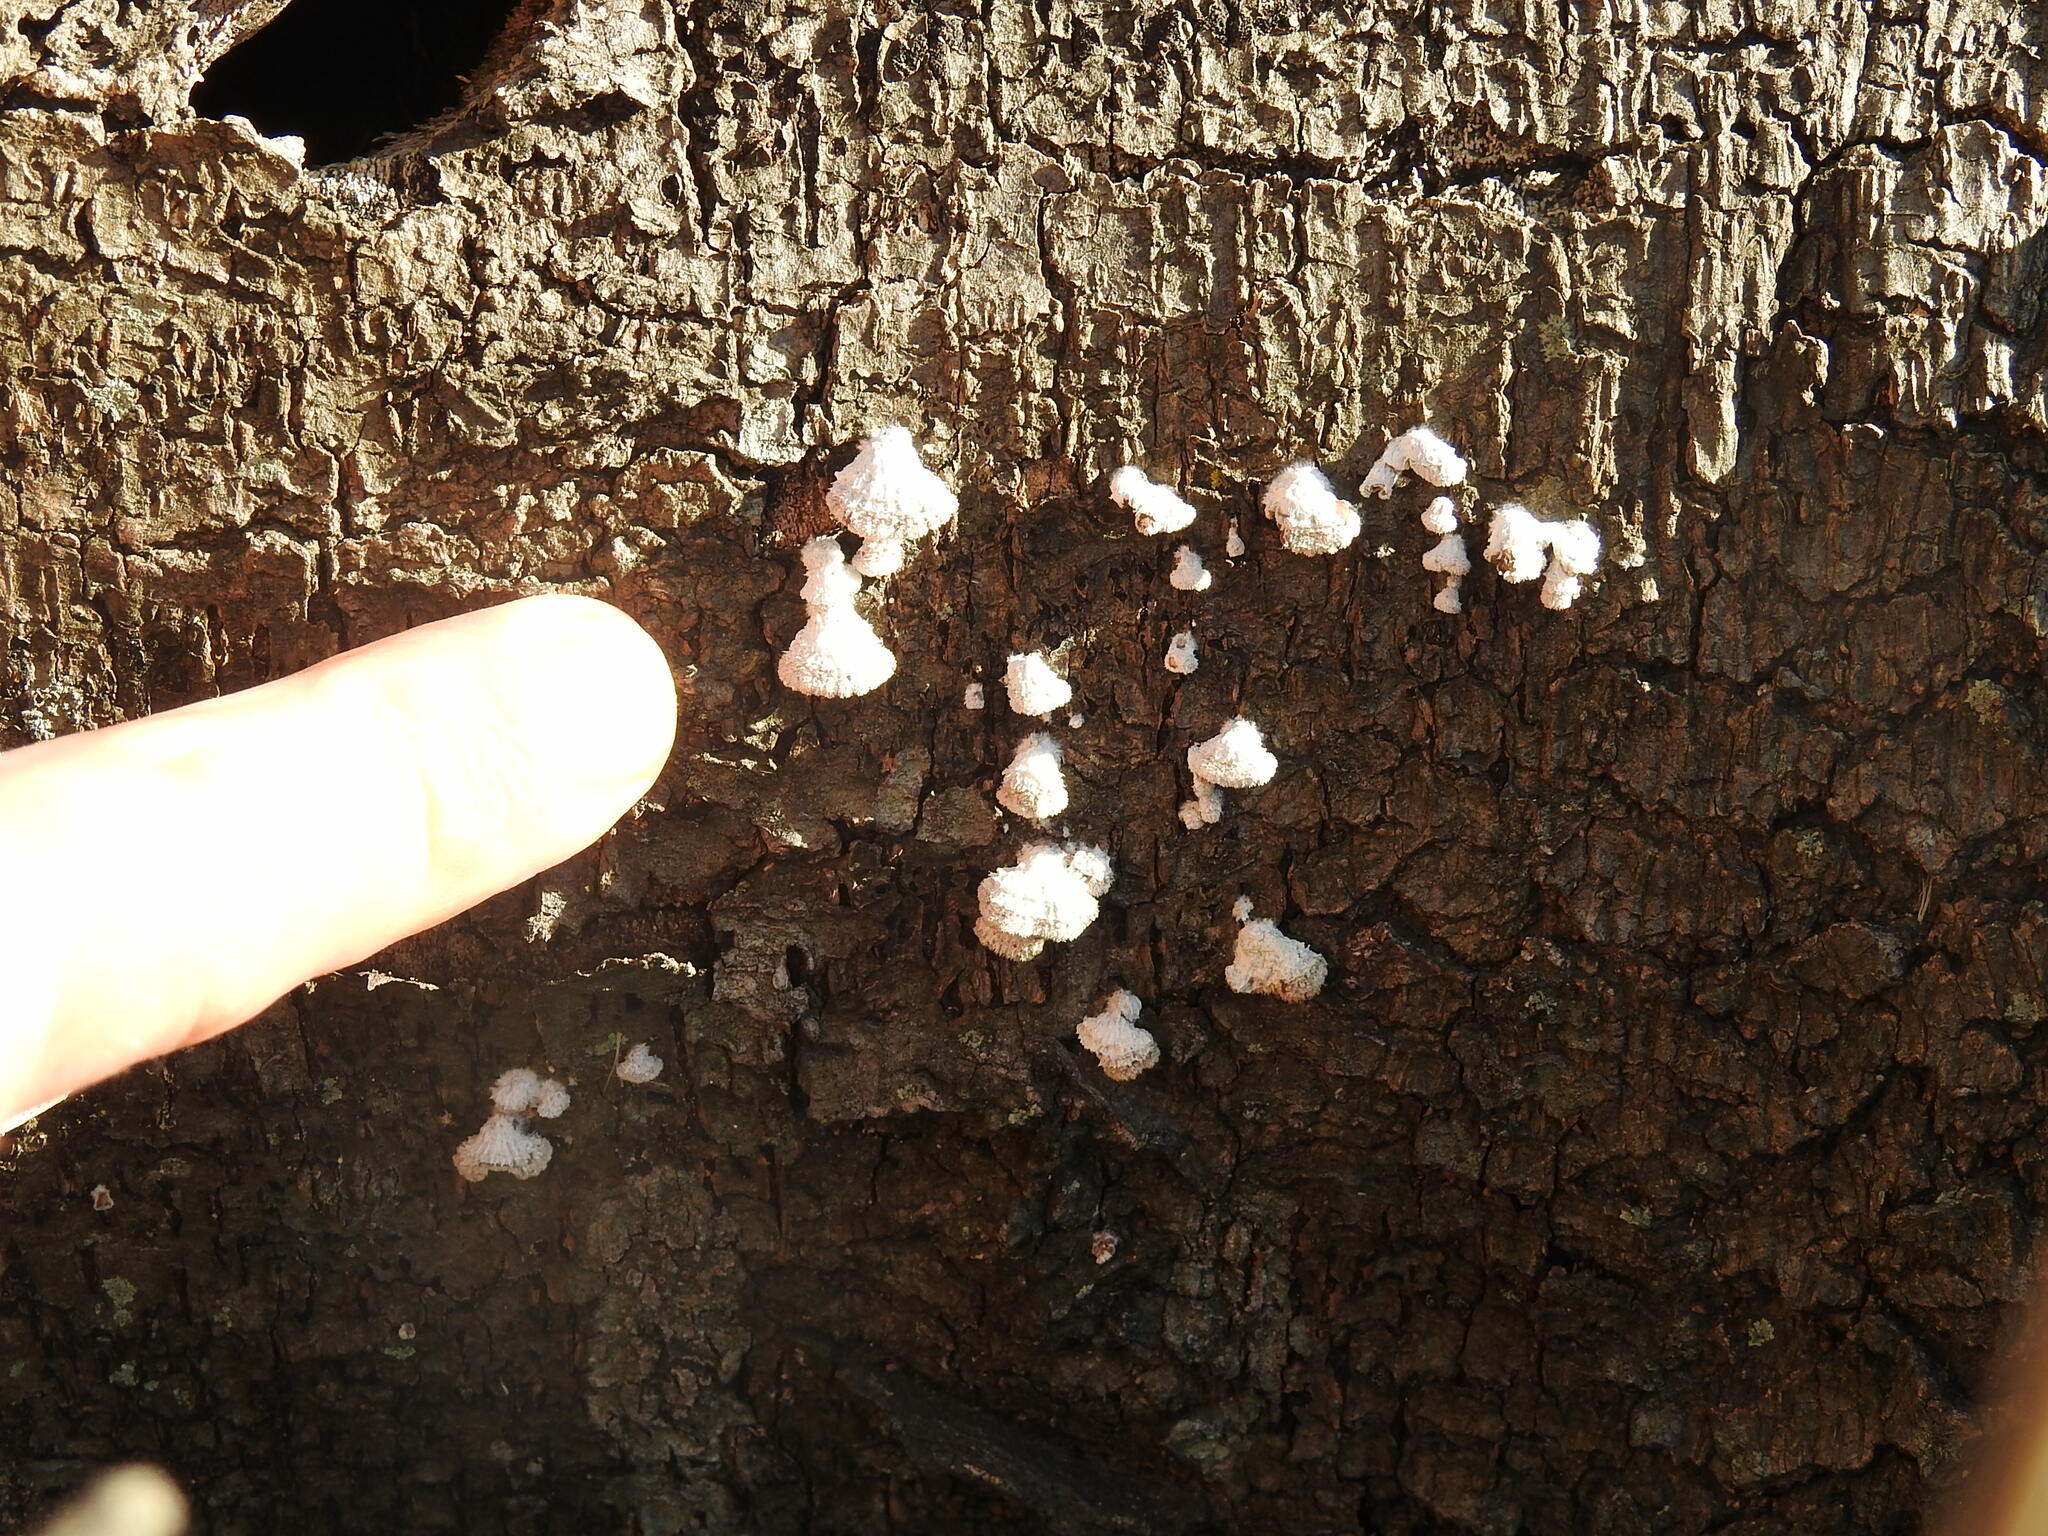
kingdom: Fungi
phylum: Basidiomycota
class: Agaricomycetes
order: Agaricales
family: Schizophyllaceae
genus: Schizophyllum
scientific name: Schizophyllum commune
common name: Common porecrust
